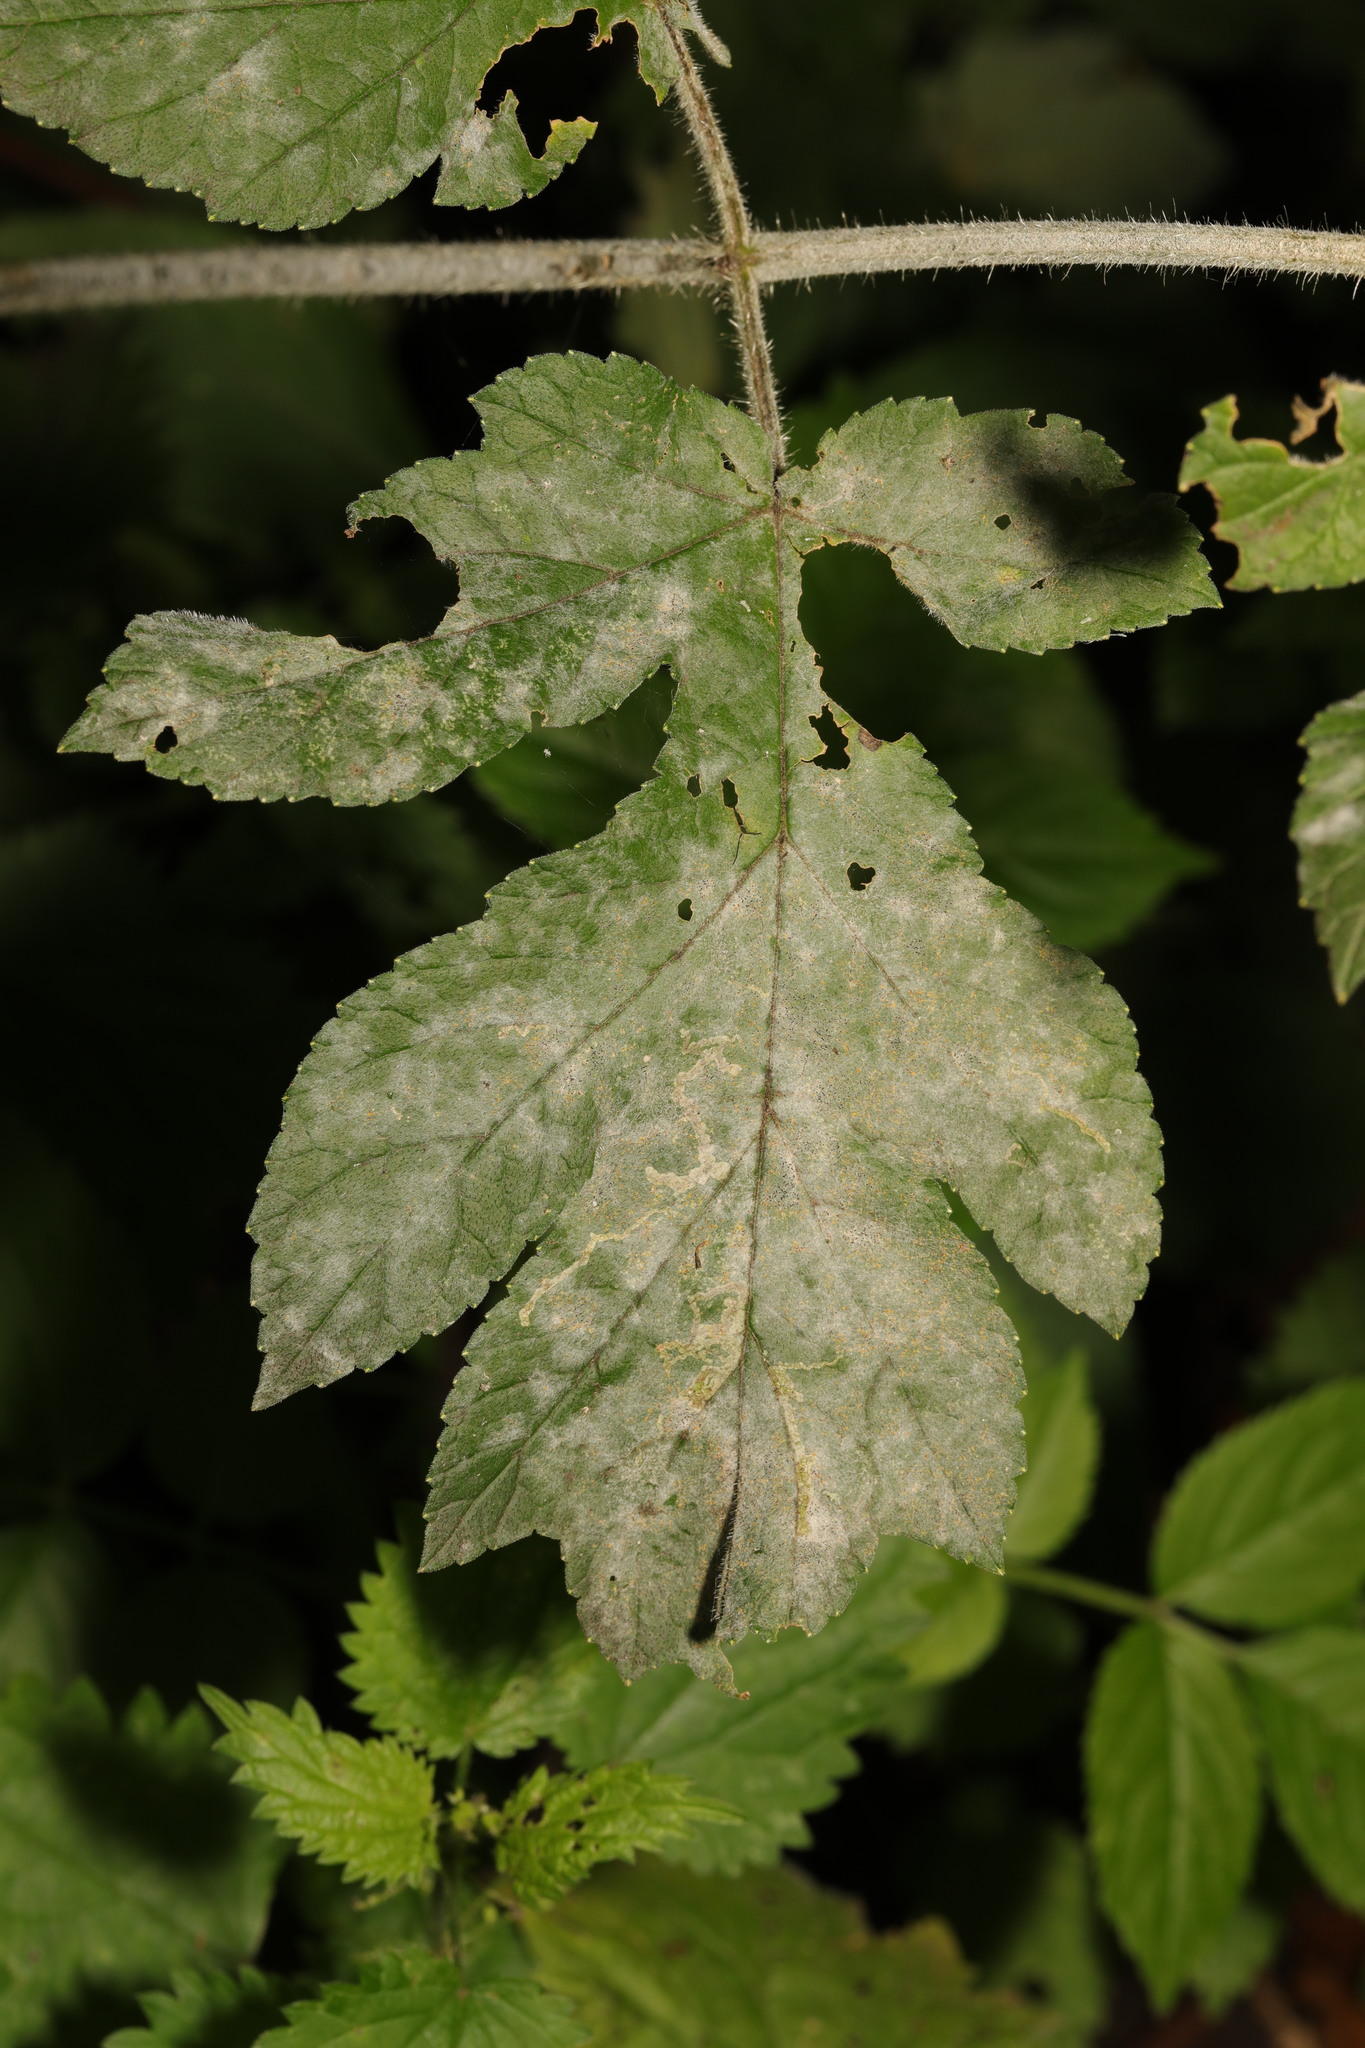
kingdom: Fungi
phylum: Ascomycota
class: Leotiomycetes
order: Helotiales
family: Erysiphaceae
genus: Erysiphe
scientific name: Erysiphe heraclei
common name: Umbellifer mildew
